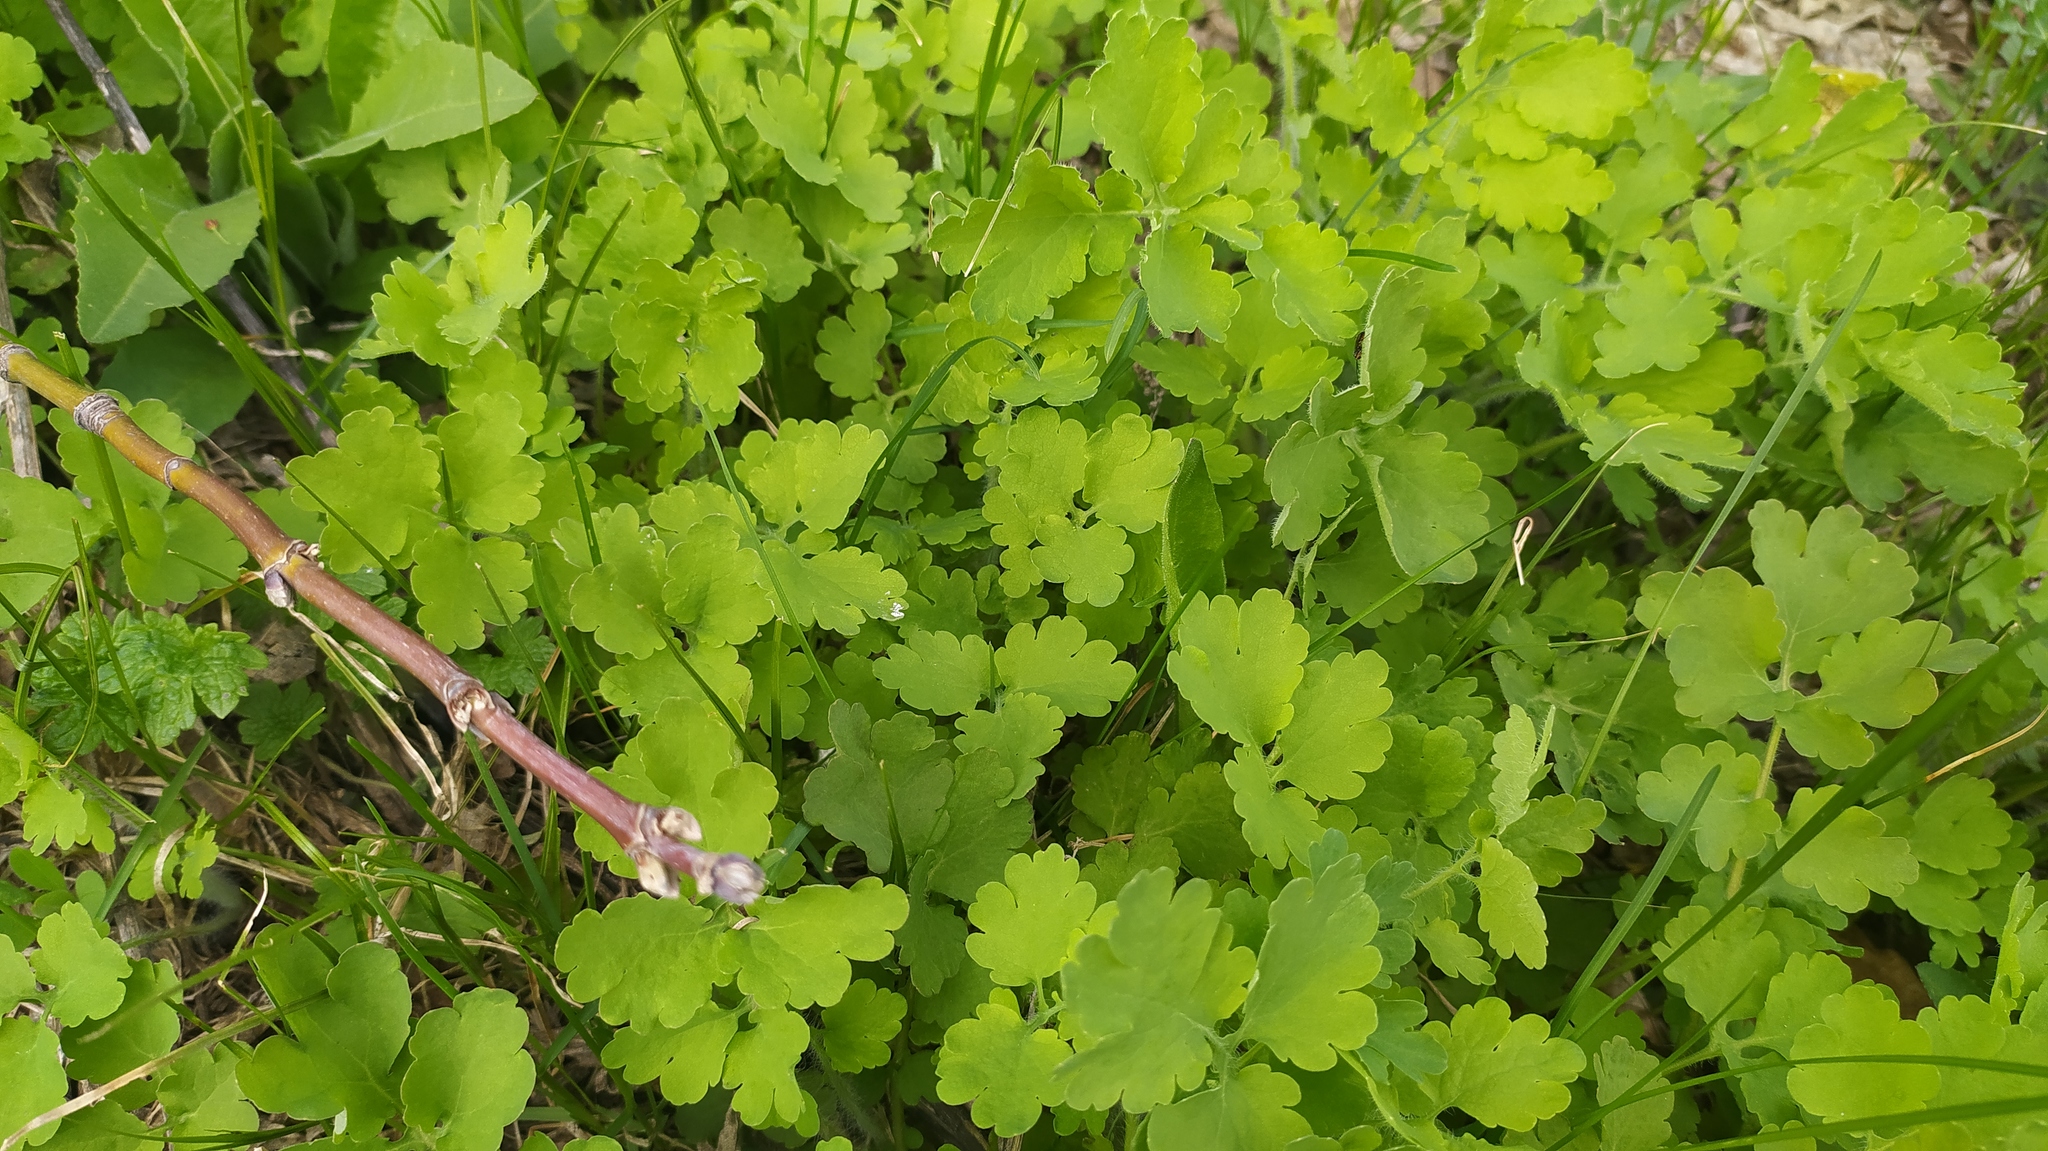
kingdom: Plantae
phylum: Tracheophyta
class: Magnoliopsida
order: Ranunculales
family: Papaveraceae
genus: Chelidonium
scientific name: Chelidonium majus
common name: Greater celandine
